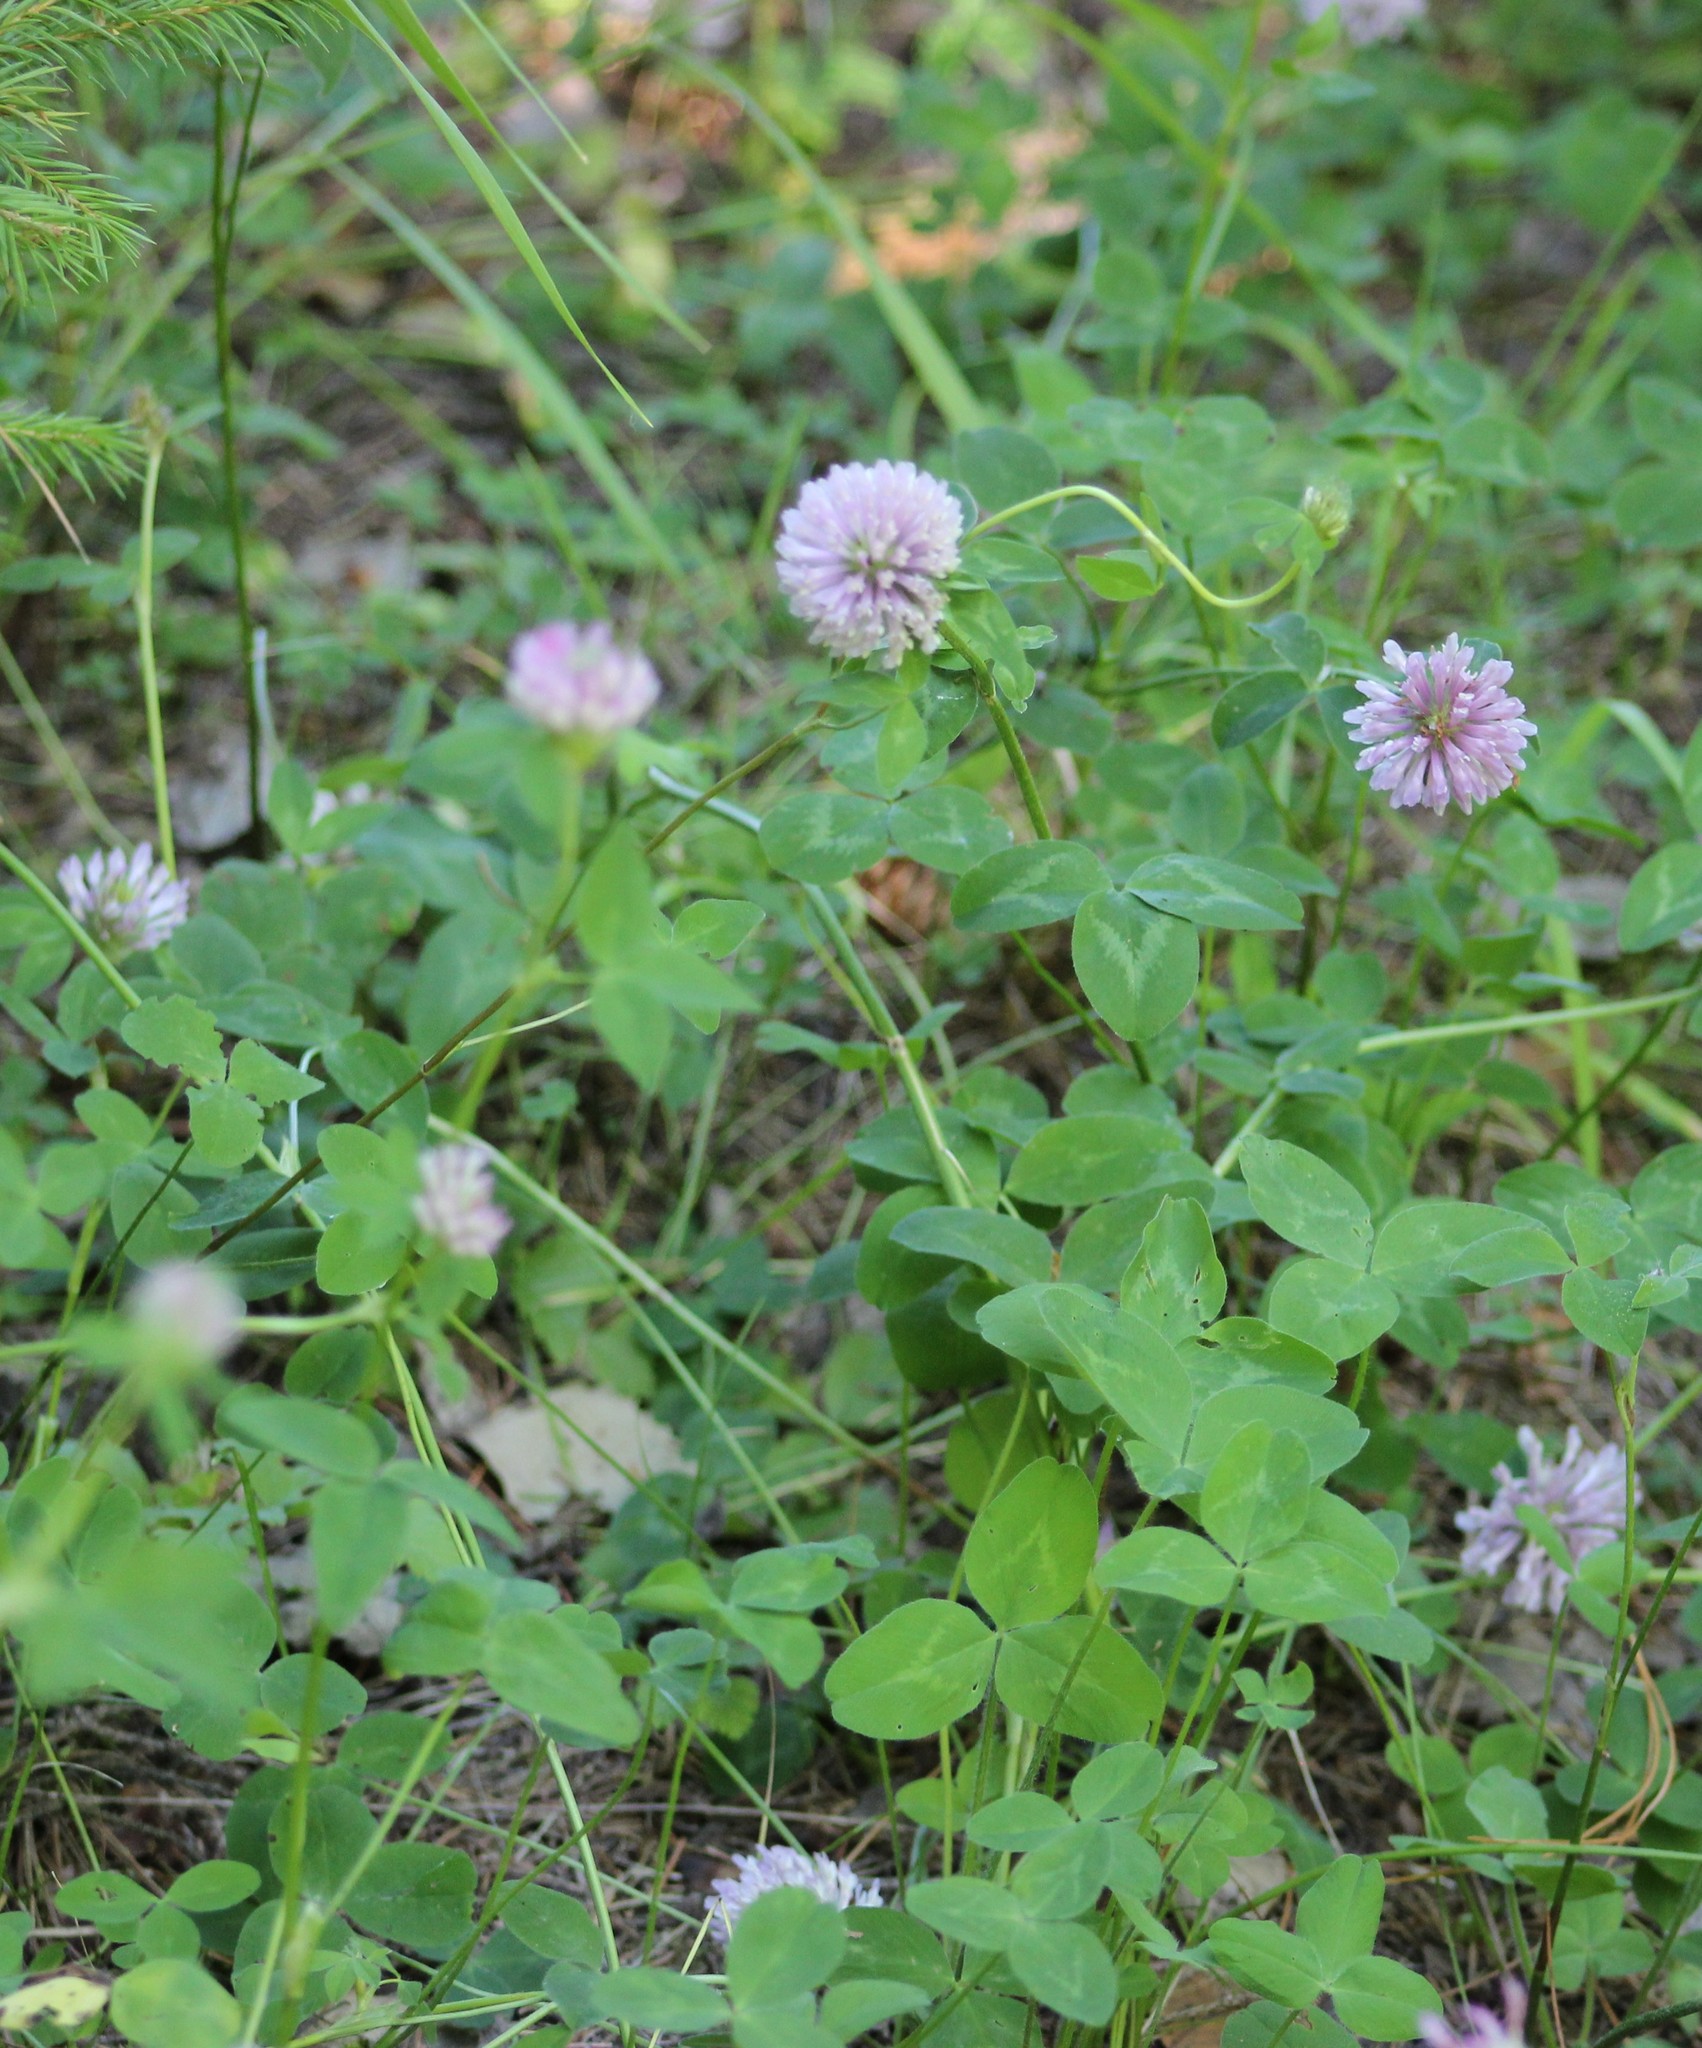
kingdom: Plantae
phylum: Tracheophyta
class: Magnoliopsida
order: Fabales
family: Fabaceae
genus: Trifolium
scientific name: Trifolium pratense
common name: Red clover
